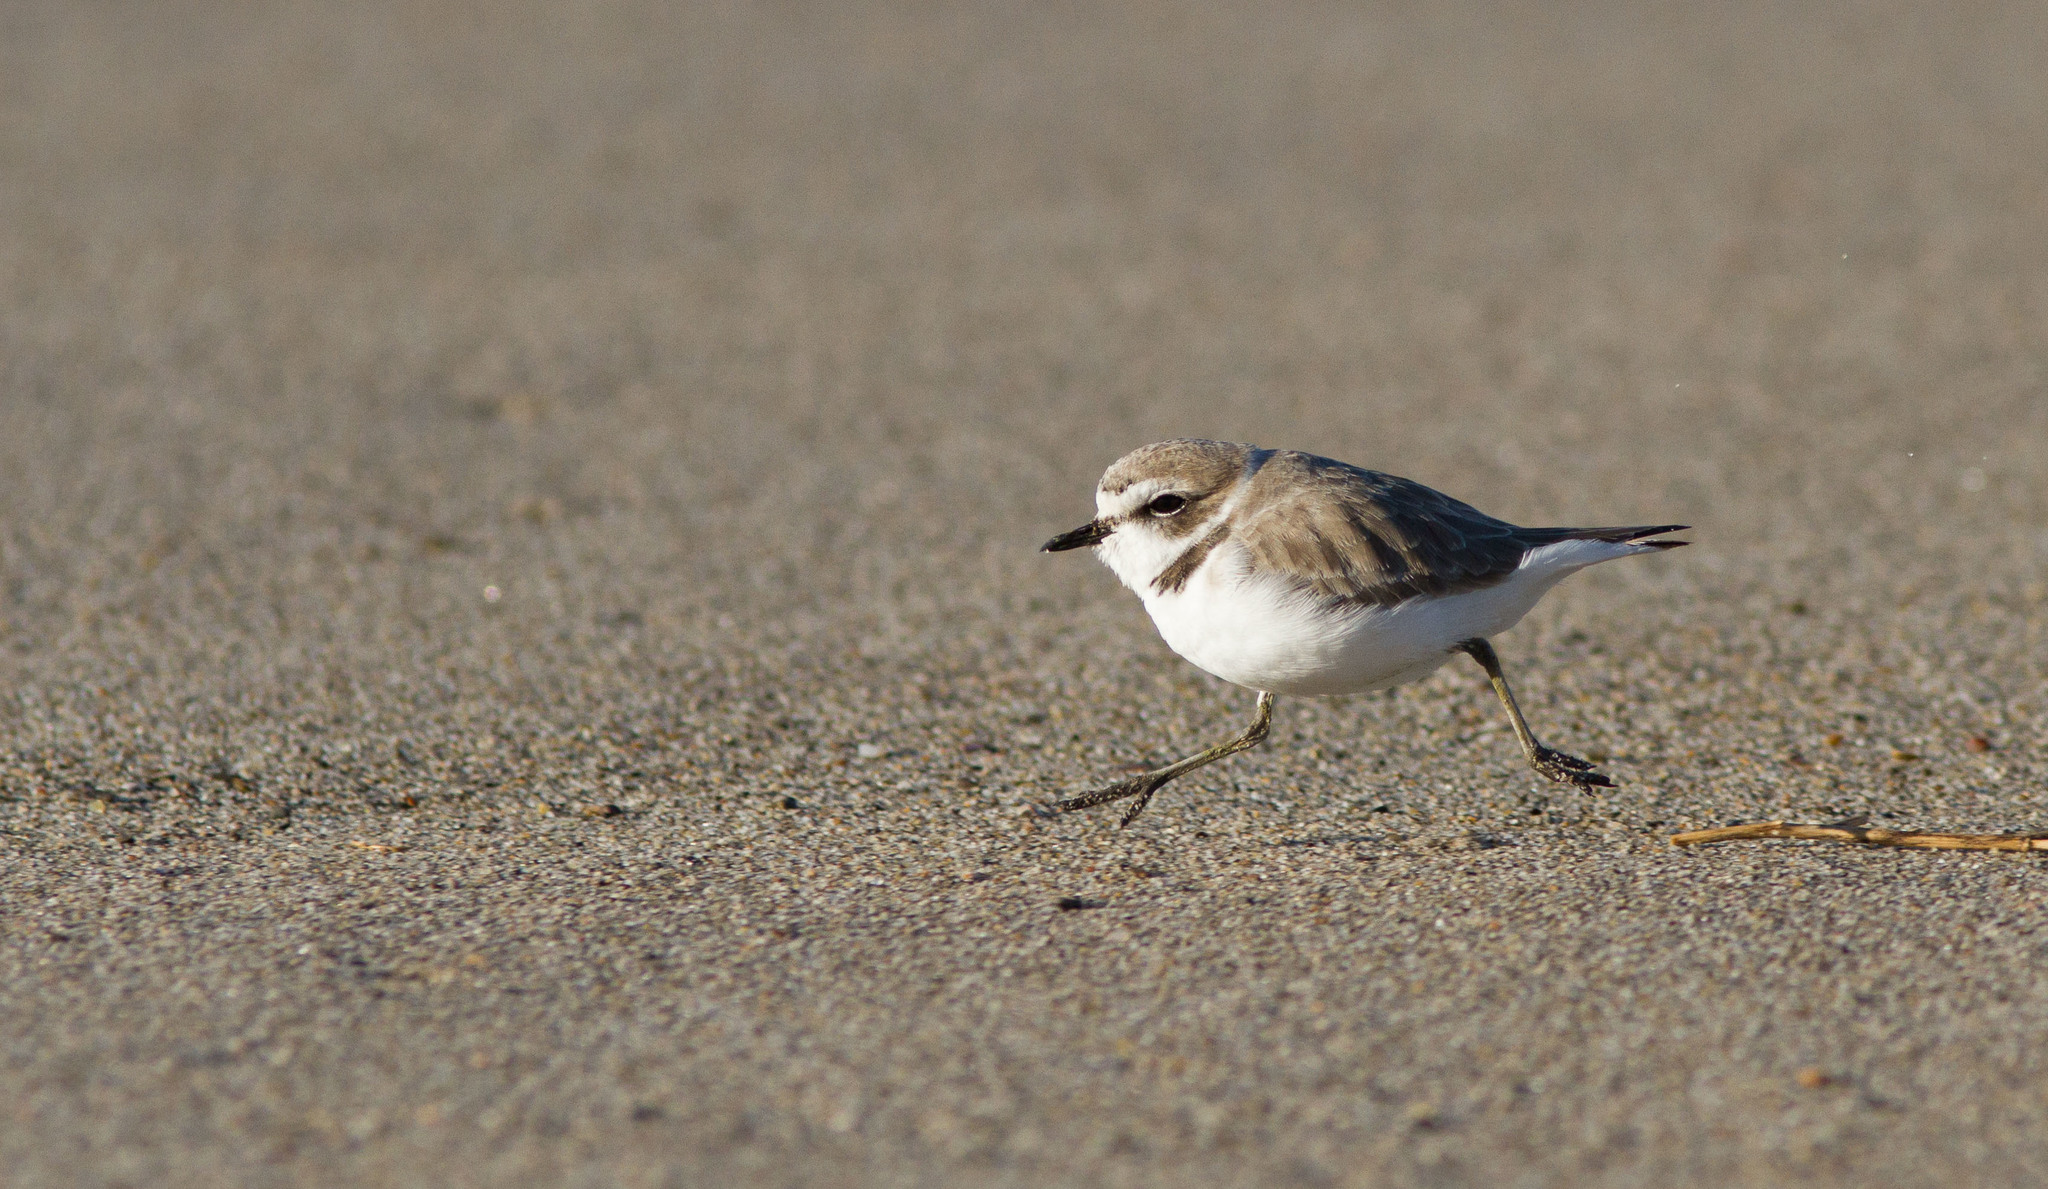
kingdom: Animalia
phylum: Chordata
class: Aves
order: Charadriiformes
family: Charadriidae
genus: Anarhynchus
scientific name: Anarhynchus
